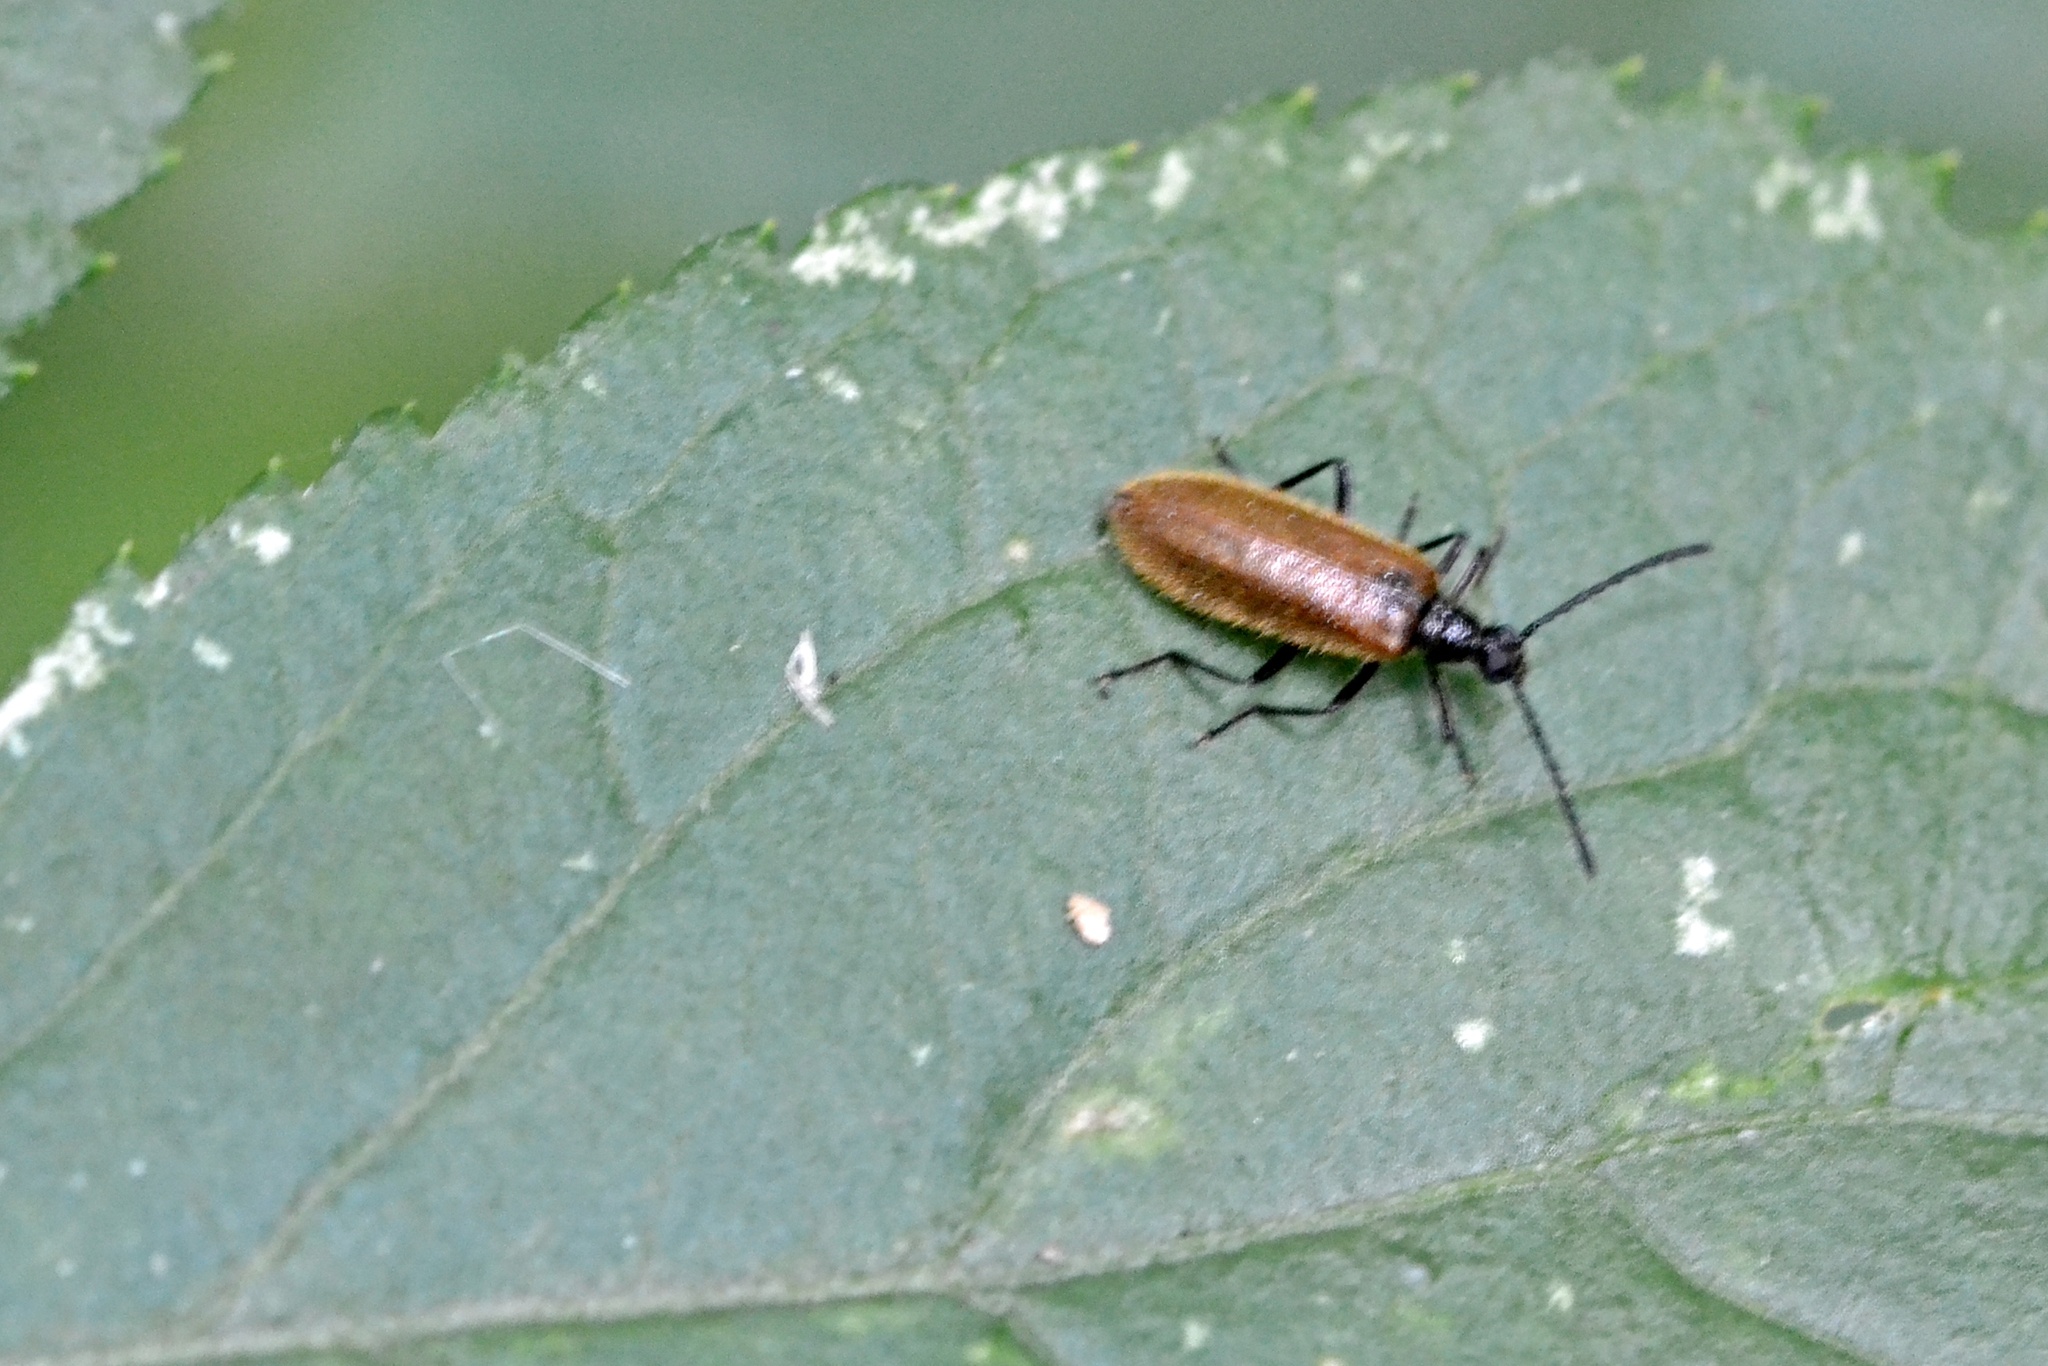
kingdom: Animalia
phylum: Arthropoda
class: Insecta
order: Coleoptera
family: Tenebrionidae
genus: Lagria
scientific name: Lagria hirta
